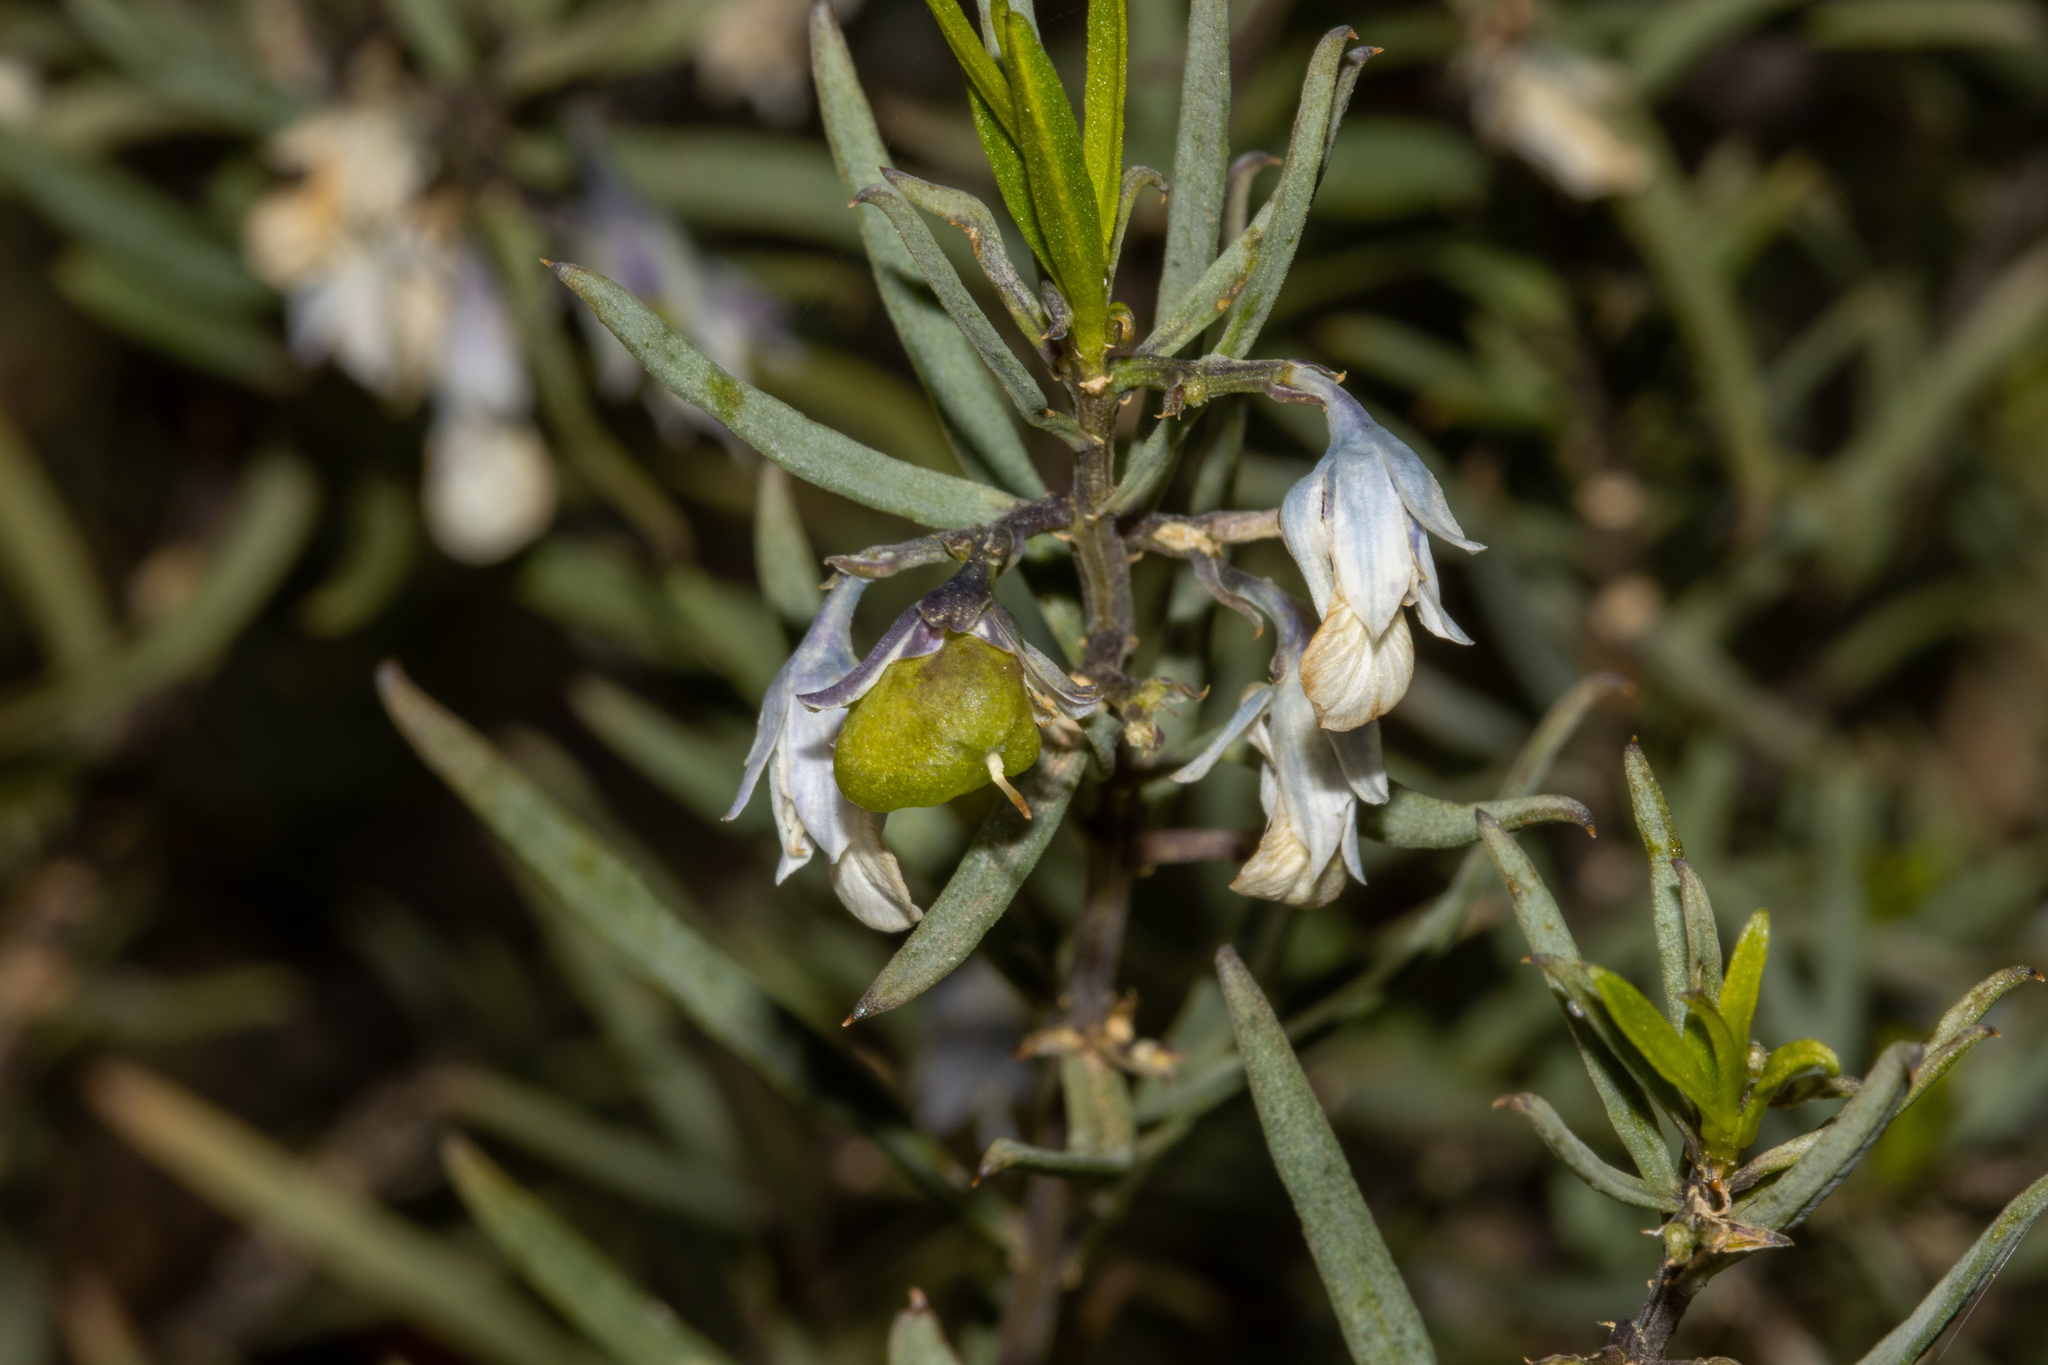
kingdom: Plantae
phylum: Tracheophyta
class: Magnoliopsida
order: Malpighiales
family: Violaceae
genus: Pigea
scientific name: Pigea floribunda
